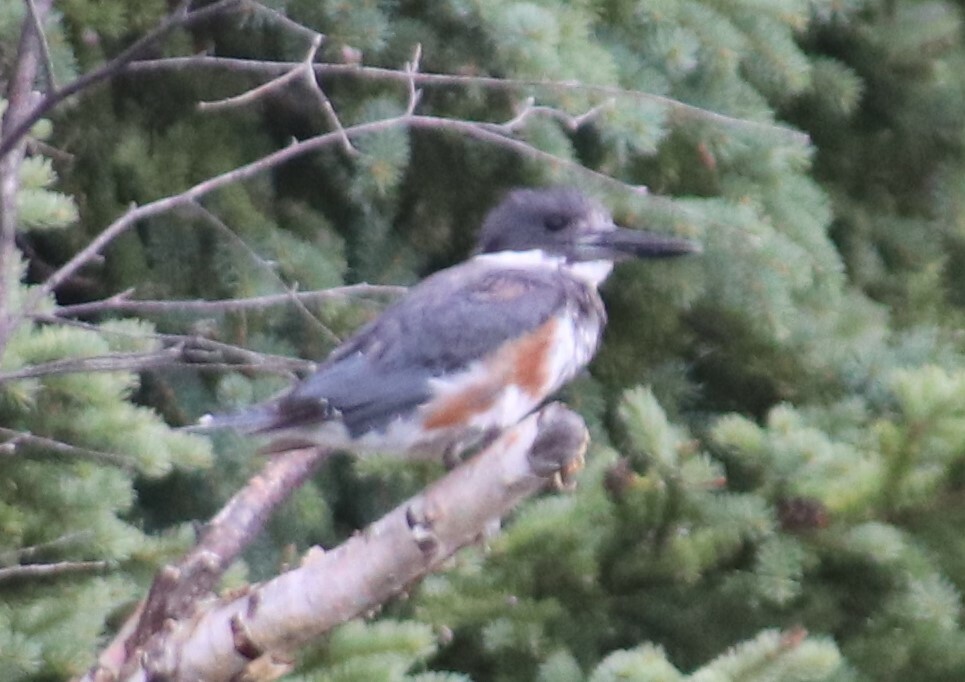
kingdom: Animalia
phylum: Chordata
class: Aves
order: Coraciiformes
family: Alcedinidae
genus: Megaceryle
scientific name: Megaceryle alcyon
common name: Belted kingfisher
